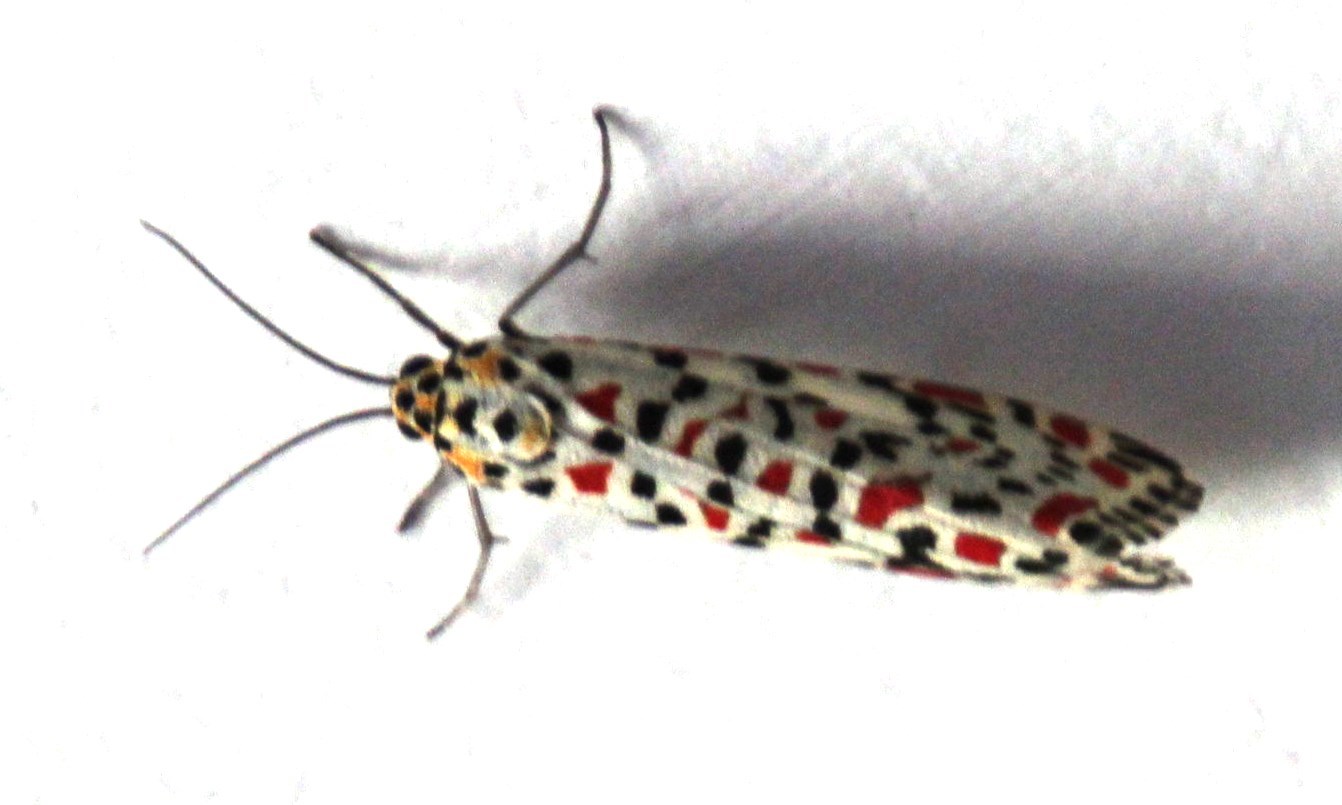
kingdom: Animalia
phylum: Arthropoda
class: Insecta
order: Lepidoptera
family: Erebidae
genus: Utetheisa
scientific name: Utetheisa pulchella
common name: Crimson speckled
